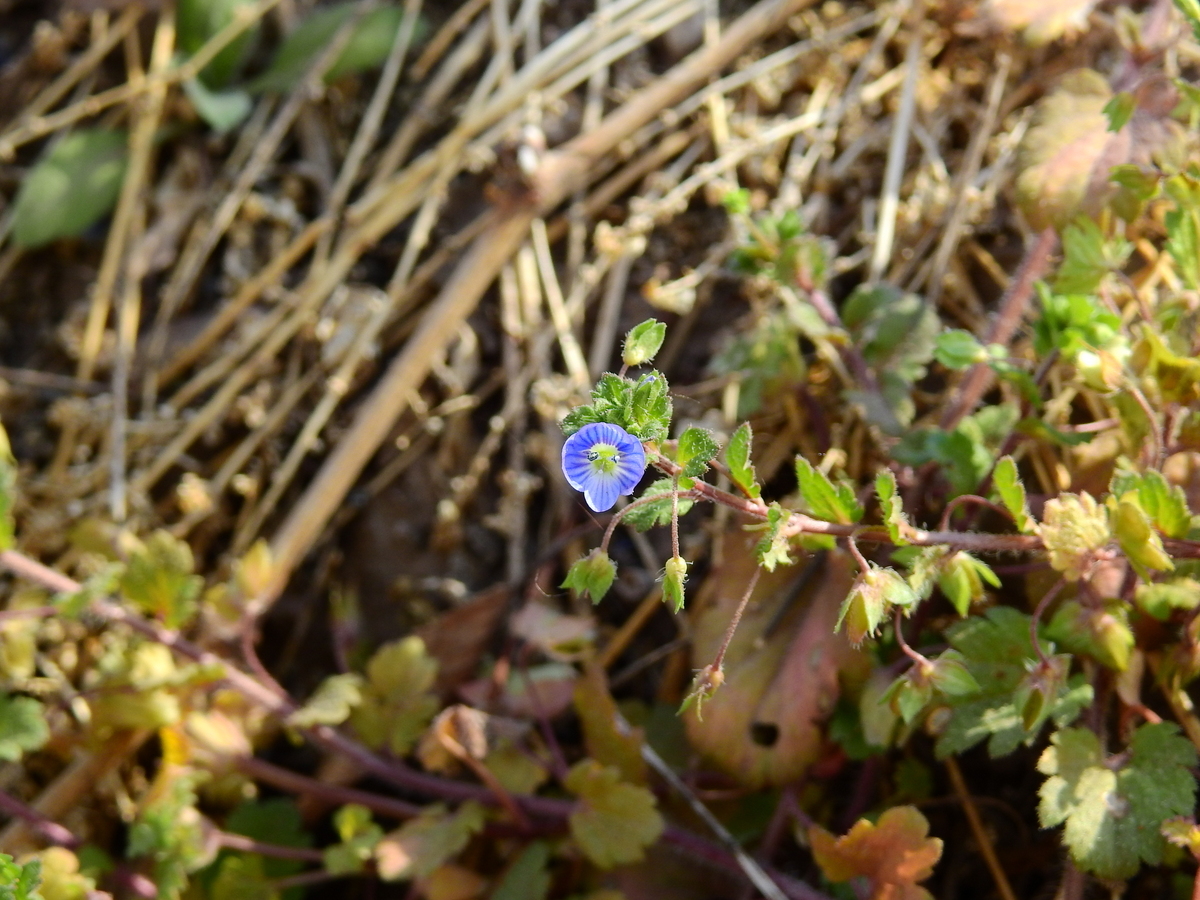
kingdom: Plantae
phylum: Tracheophyta
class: Magnoliopsida
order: Lamiales
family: Plantaginaceae
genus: Veronica
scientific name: Veronica persica
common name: Common field-speedwell
